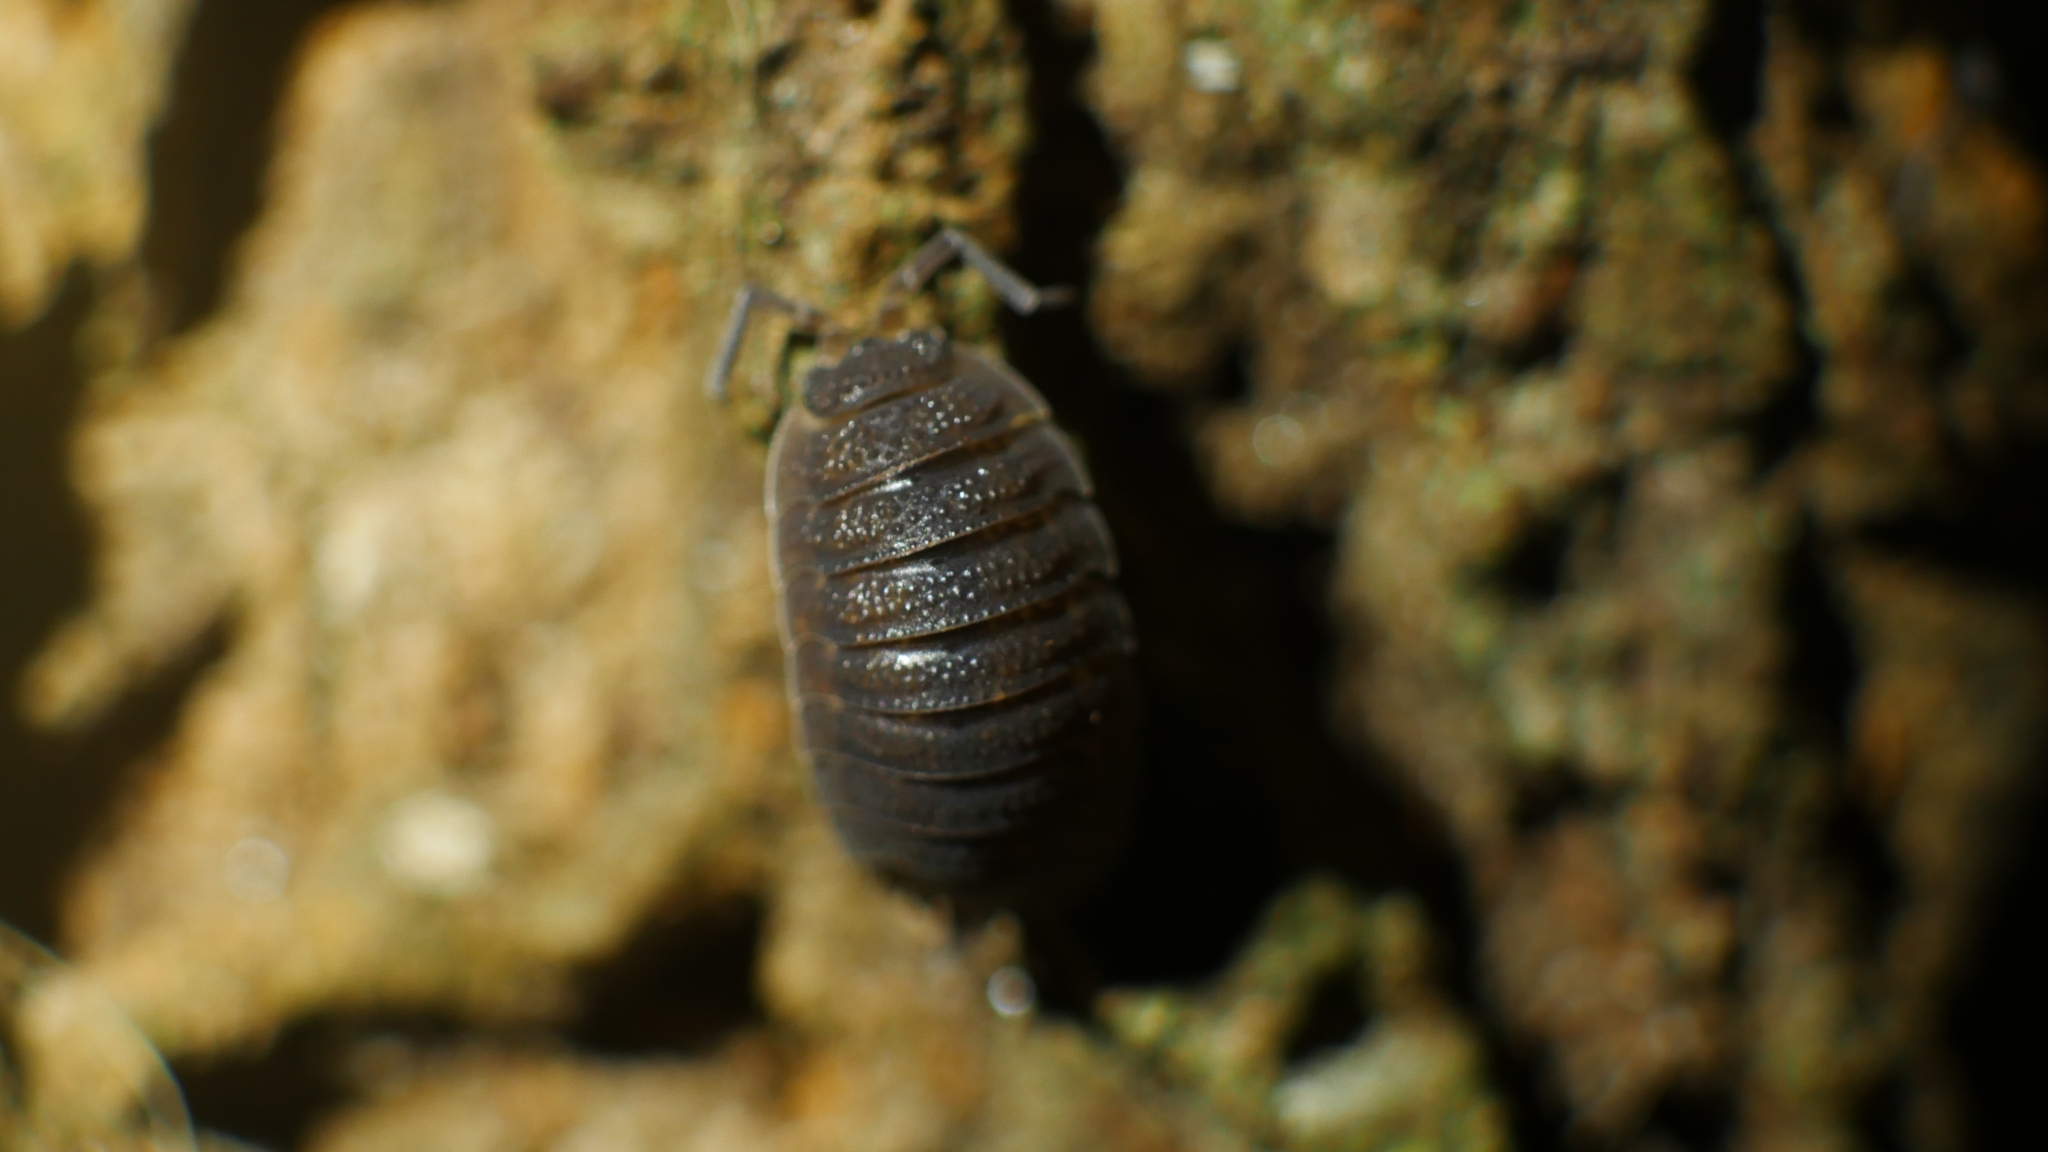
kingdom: Animalia
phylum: Arthropoda
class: Malacostraca
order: Isopoda
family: Porcellionidae
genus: Porcellio
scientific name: Porcellio scaber
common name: Common rough woodlouse
